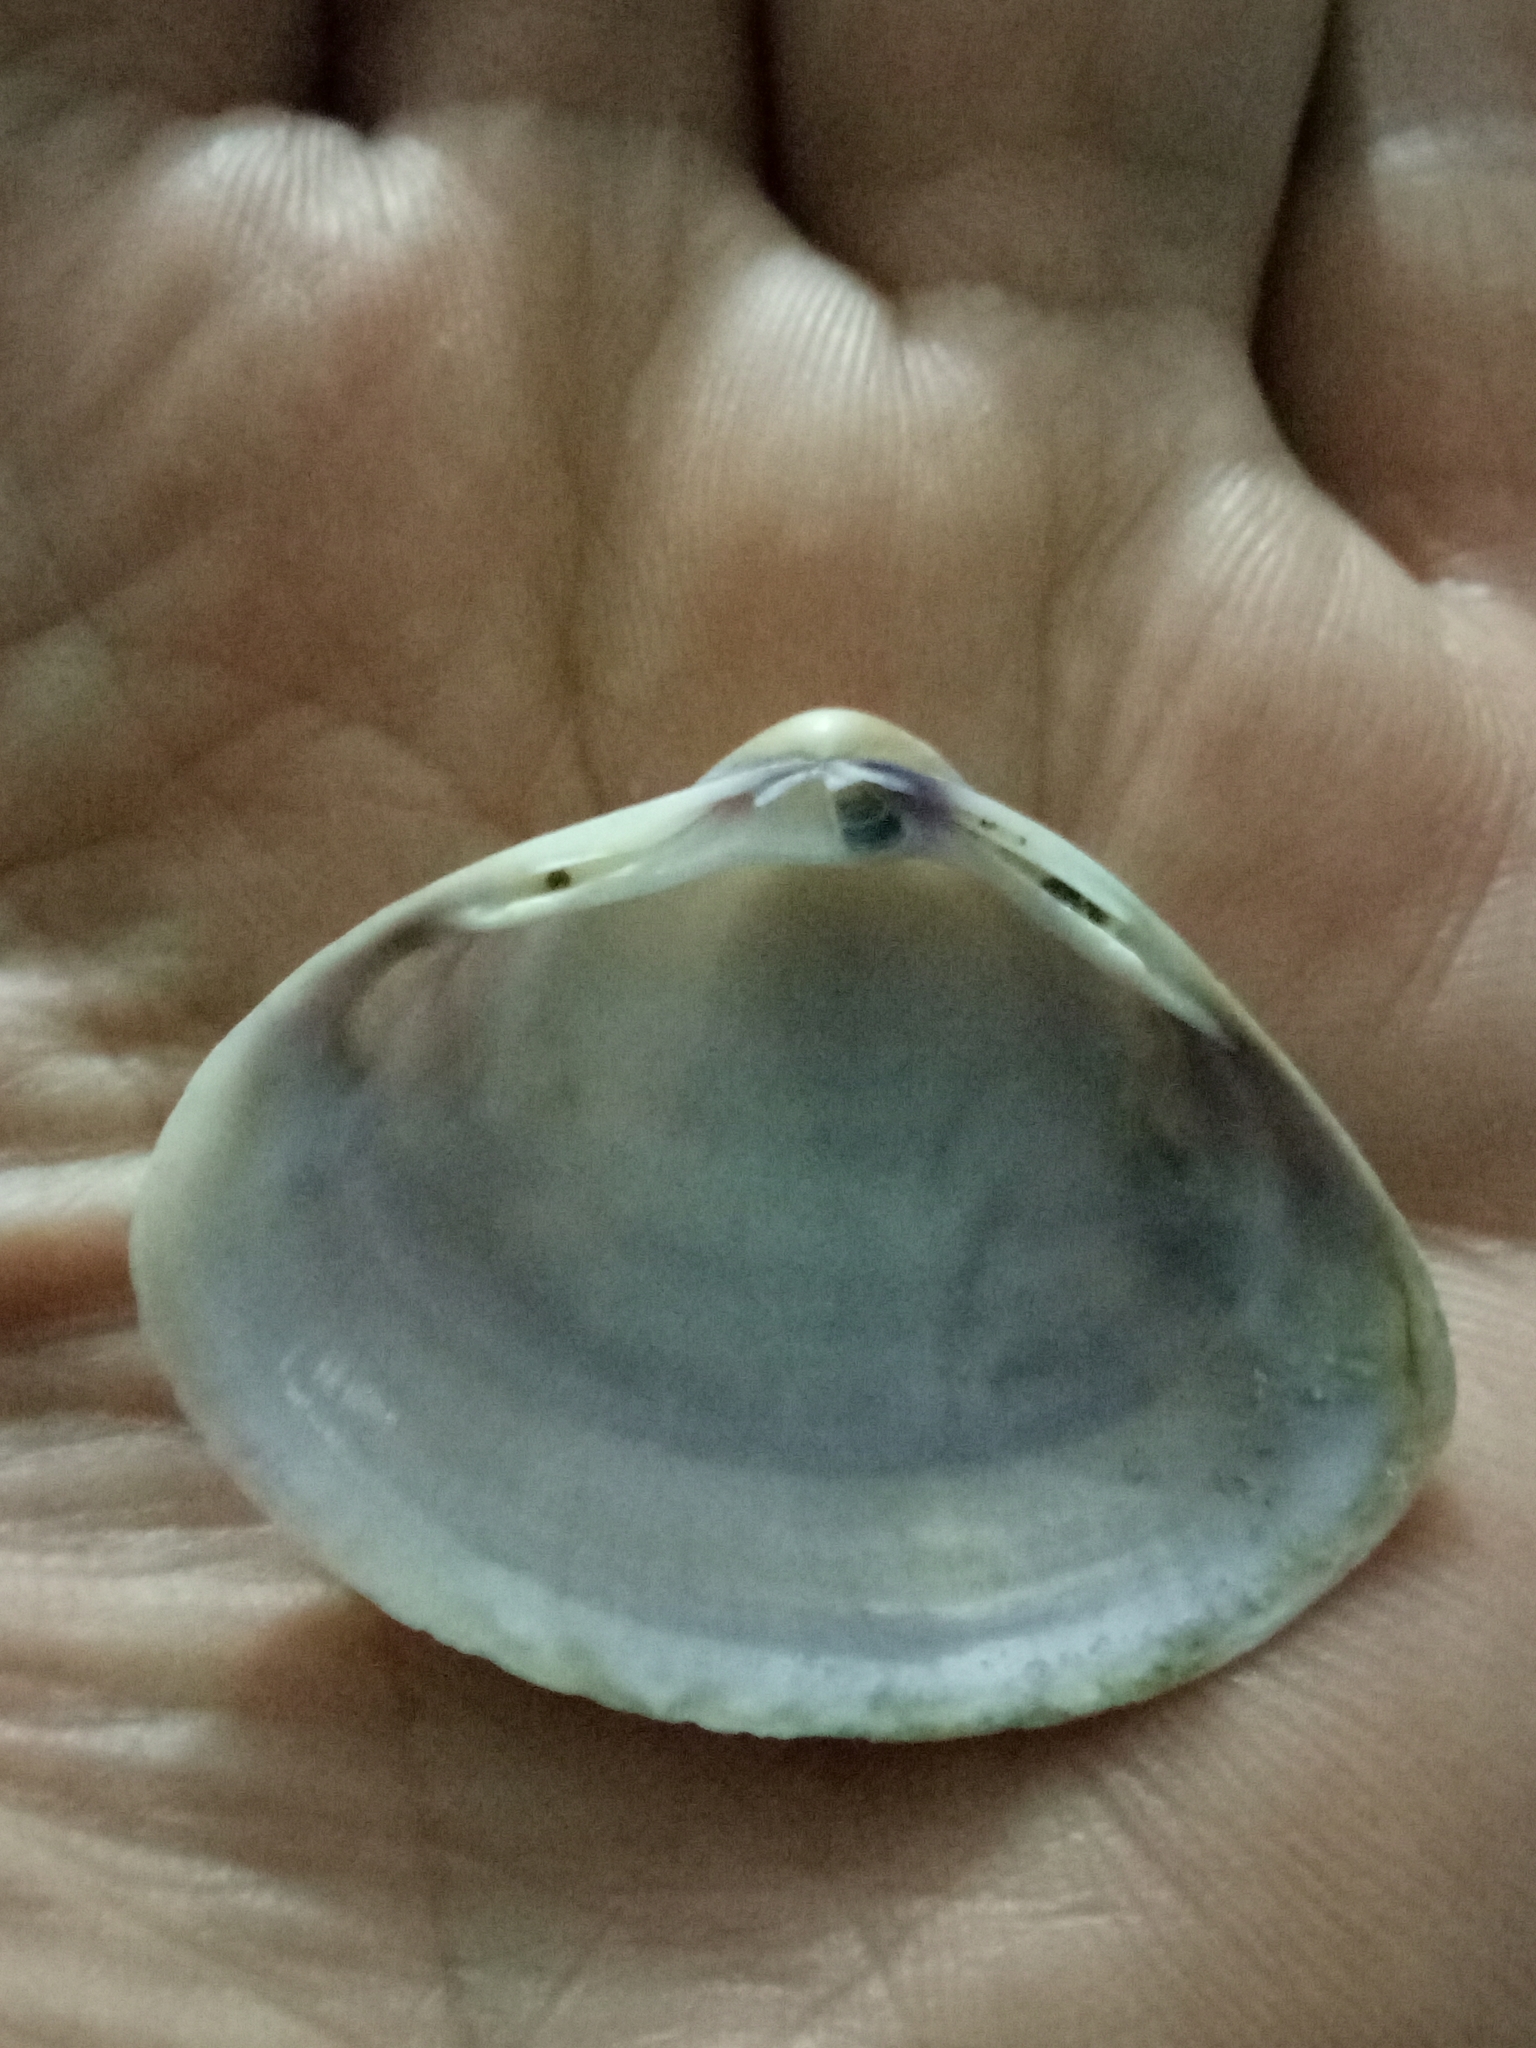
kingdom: Animalia
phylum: Mollusca
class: Bivalvia
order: Venerida
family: Mactridae
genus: Mactra
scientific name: Mactra stultorum
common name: Rayed trough shell
